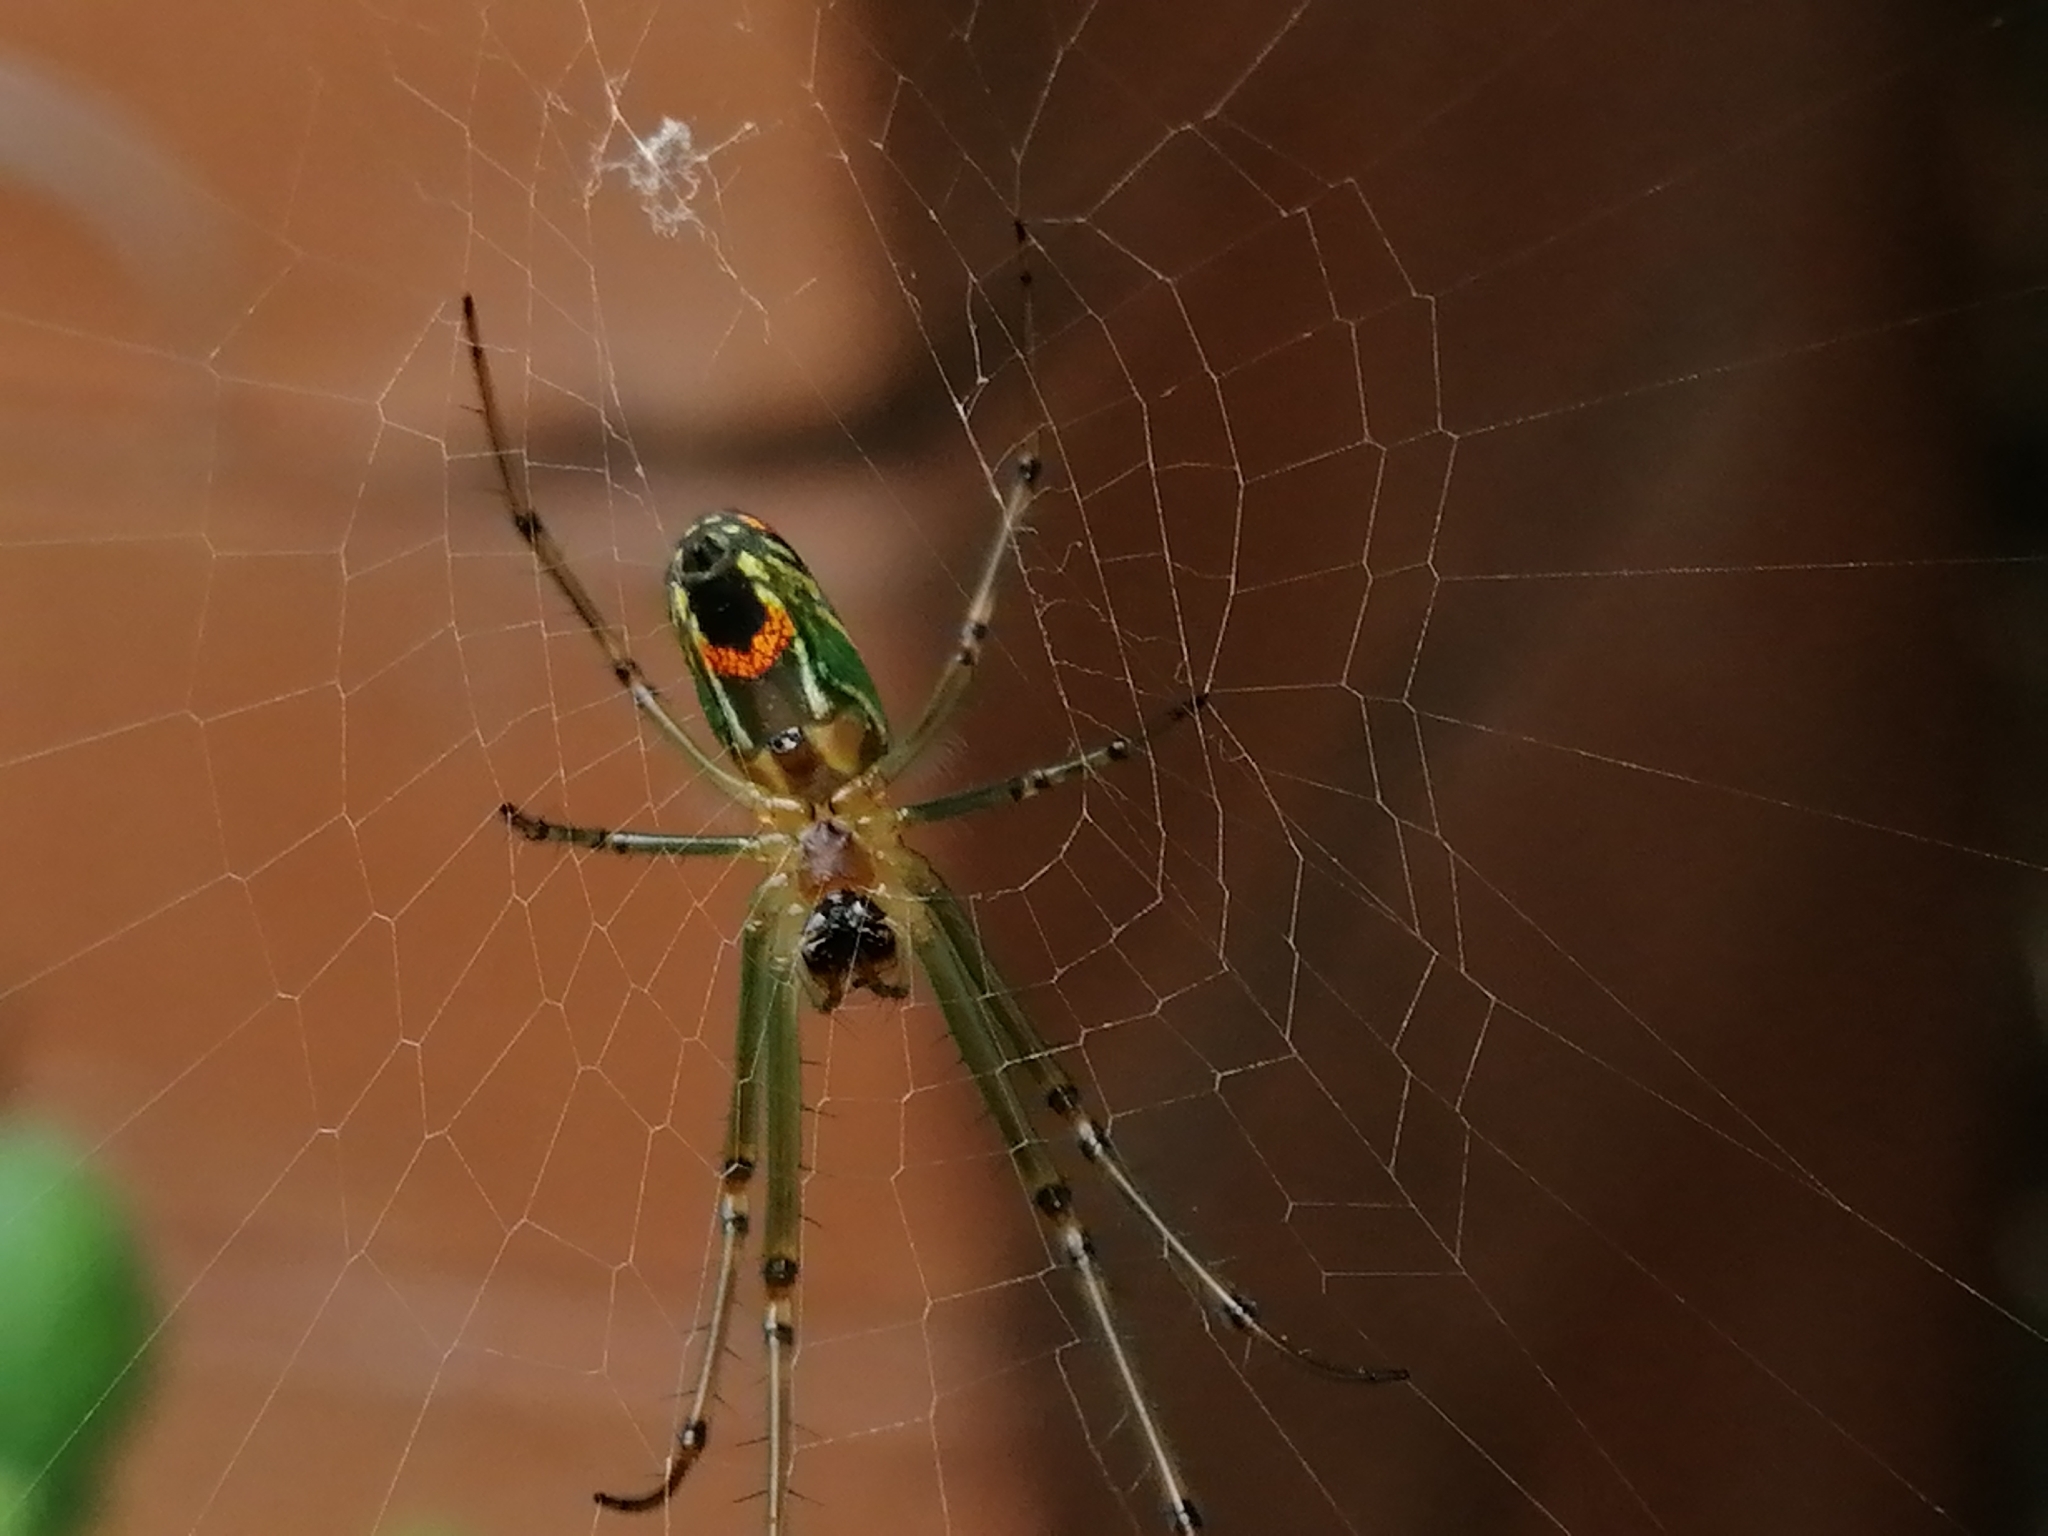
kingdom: Animalia
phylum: Arthropoda
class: Arachnida
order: Araneae
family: Tetragnathidae
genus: Leucauge
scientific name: Leucauge mariana
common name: Longjawed orb weavers
